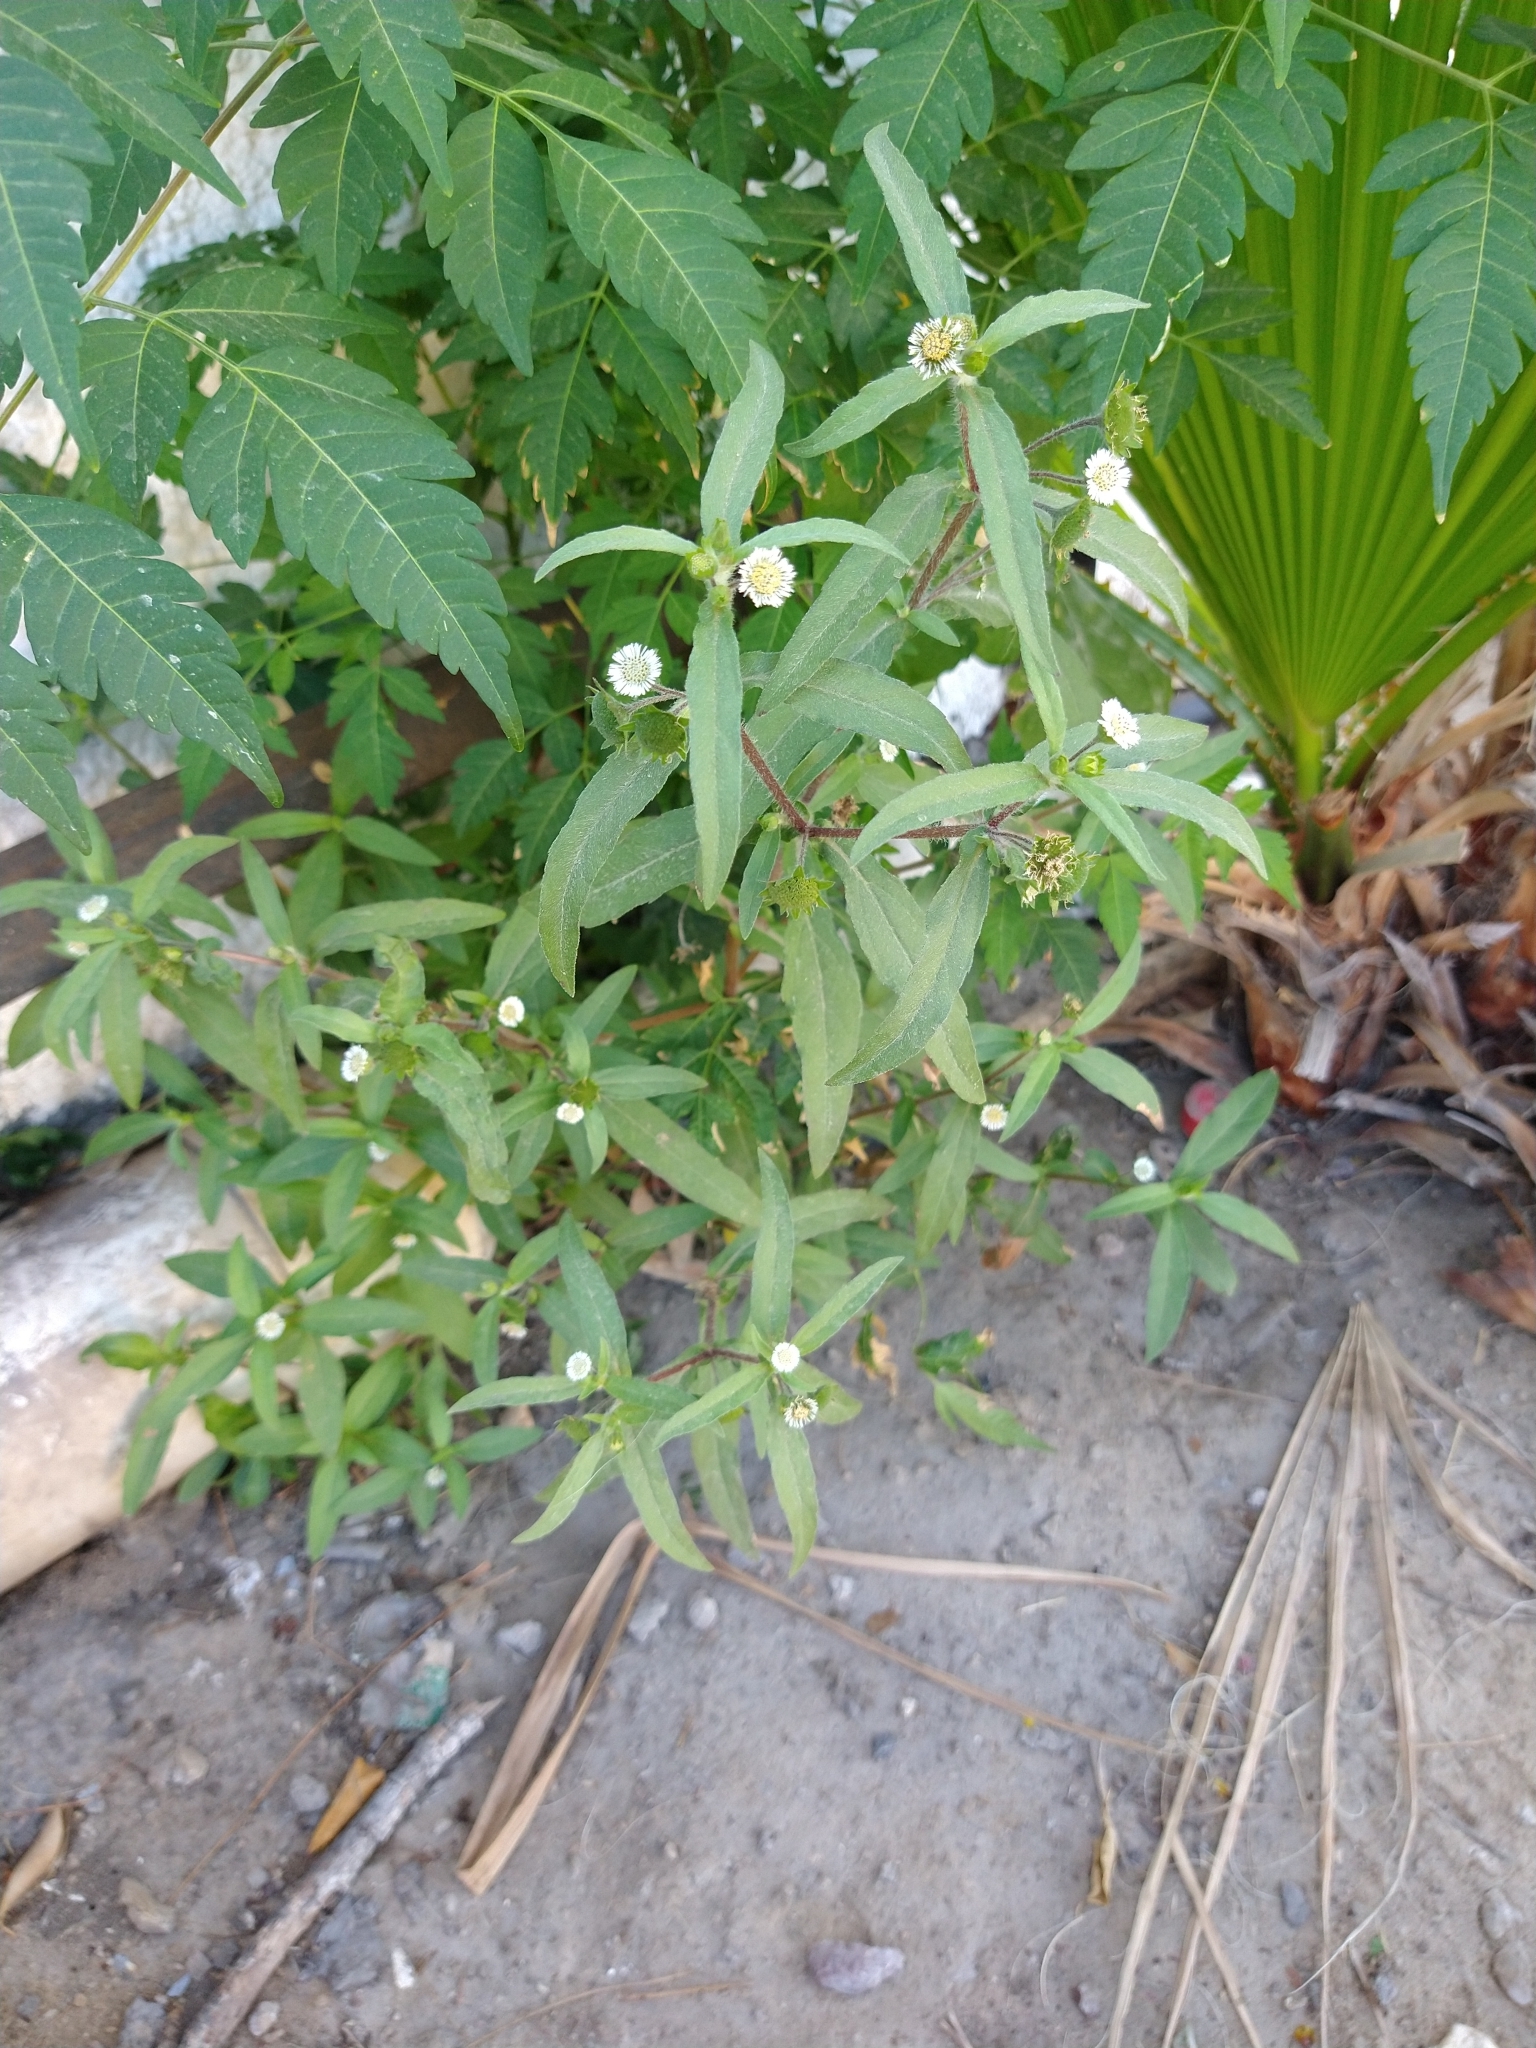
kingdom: Plantae
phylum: Tracheophyta
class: Magnoliopsida
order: Asterales
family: Asteraceae
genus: Eclipta
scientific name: Eclipta prostrata
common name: False daisy
